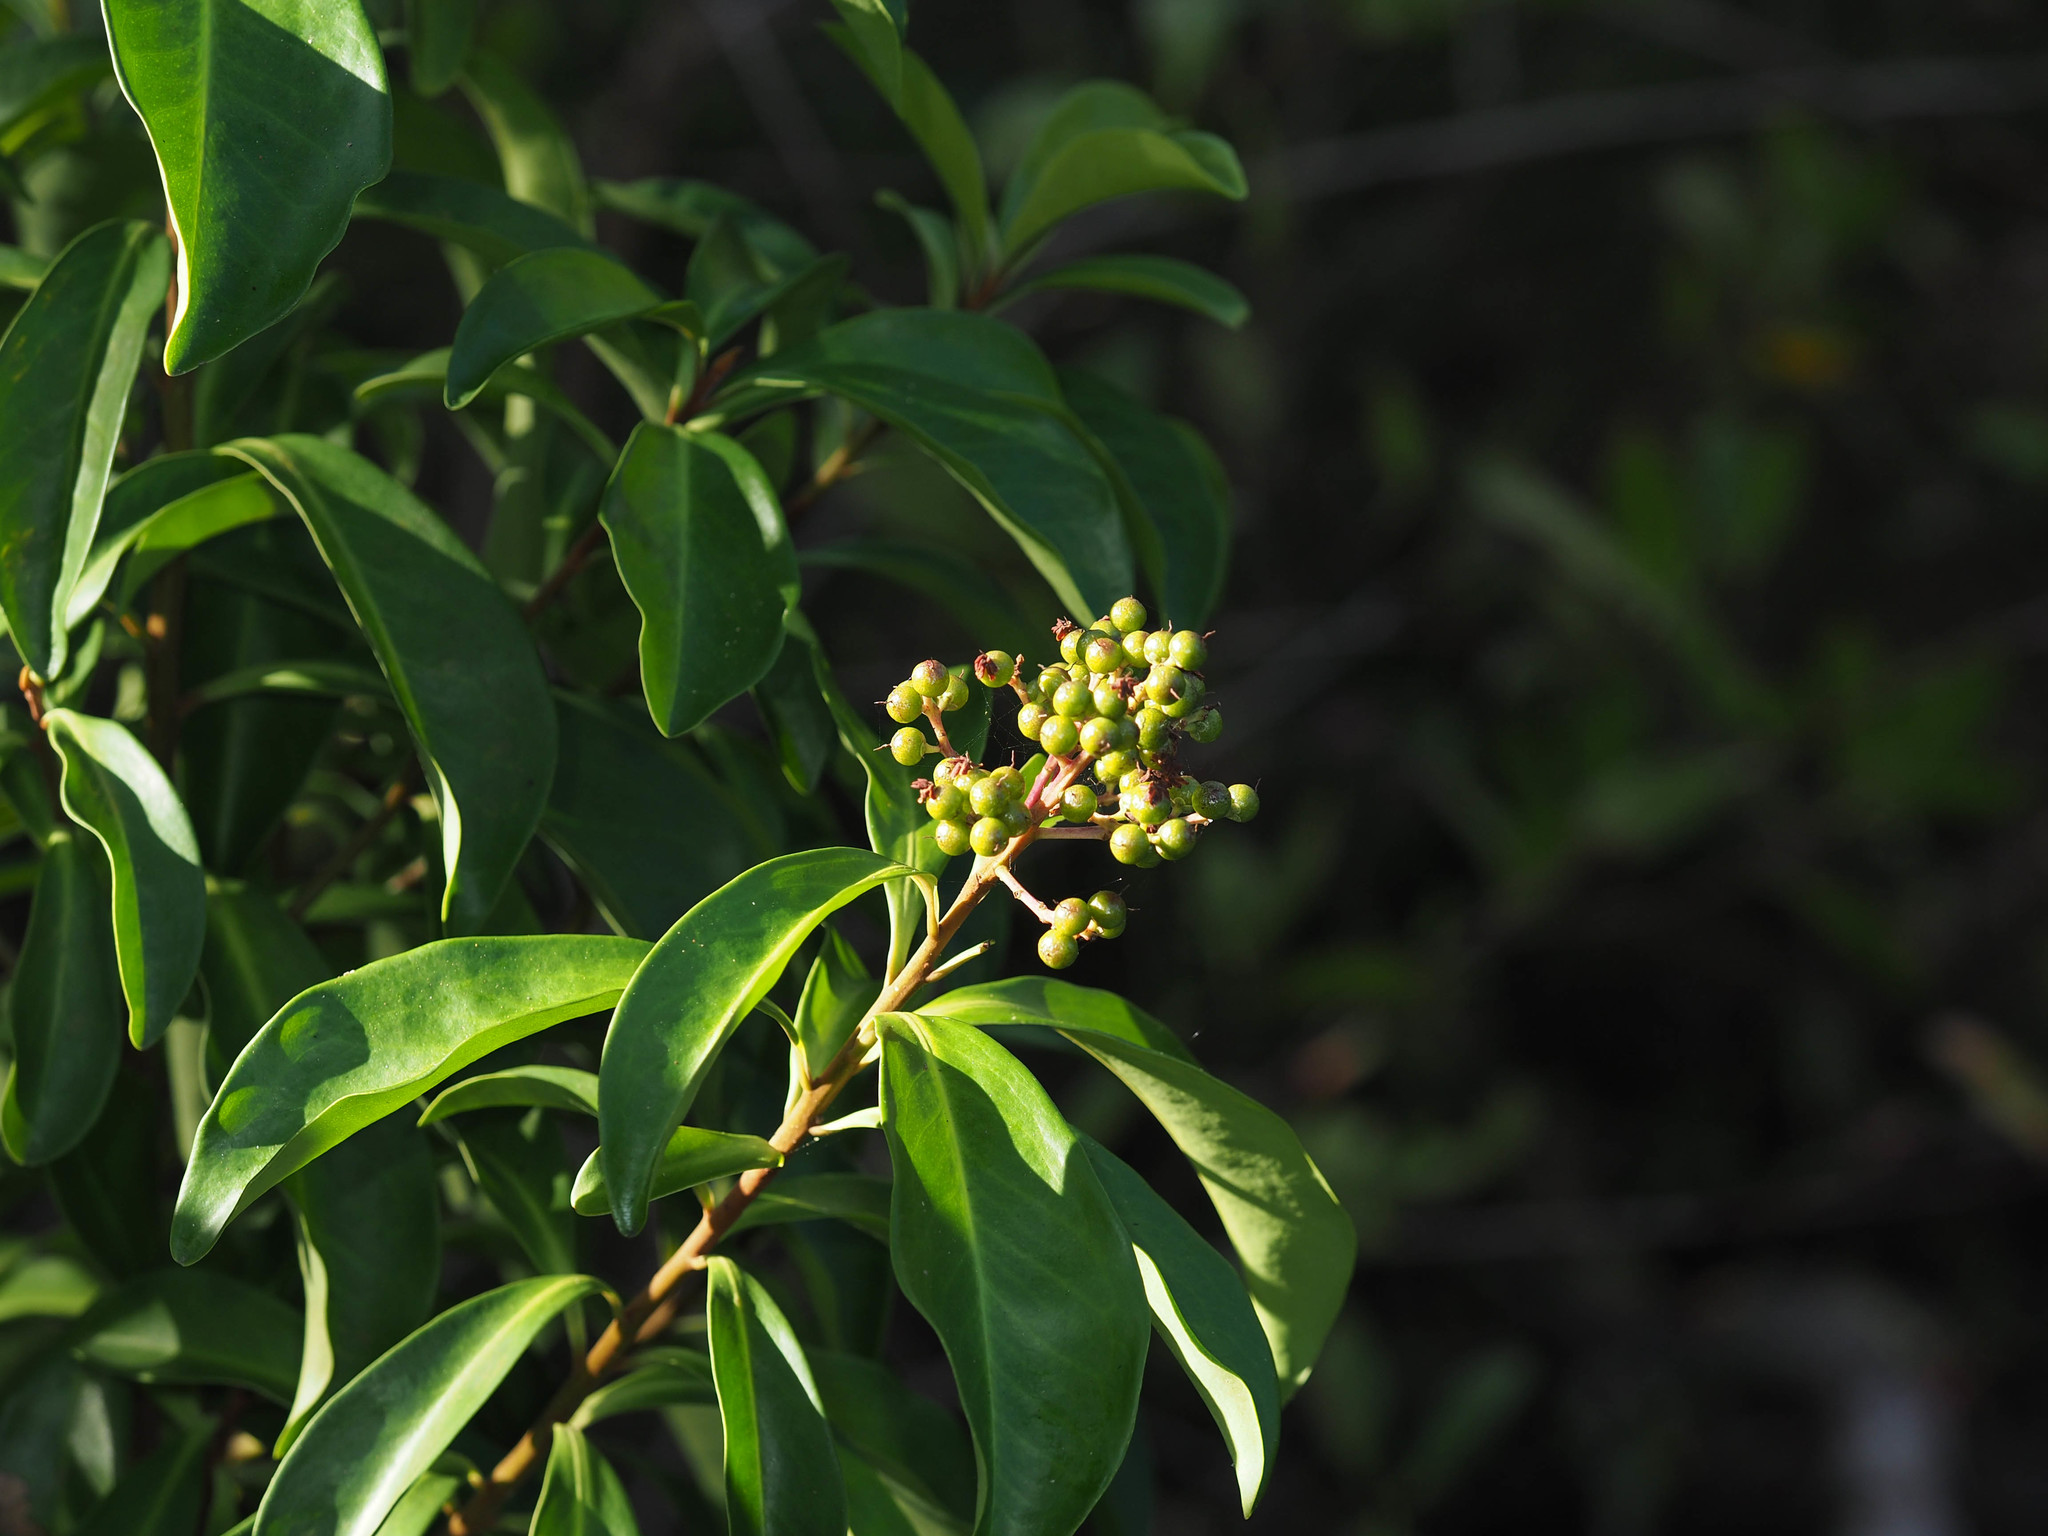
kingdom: Plantae
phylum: Tracheophyta
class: Magnoliopsida
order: Ericales
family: Primulaceae
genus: Ardisia
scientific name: Ardisia escallonioides
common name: Island marlberry
